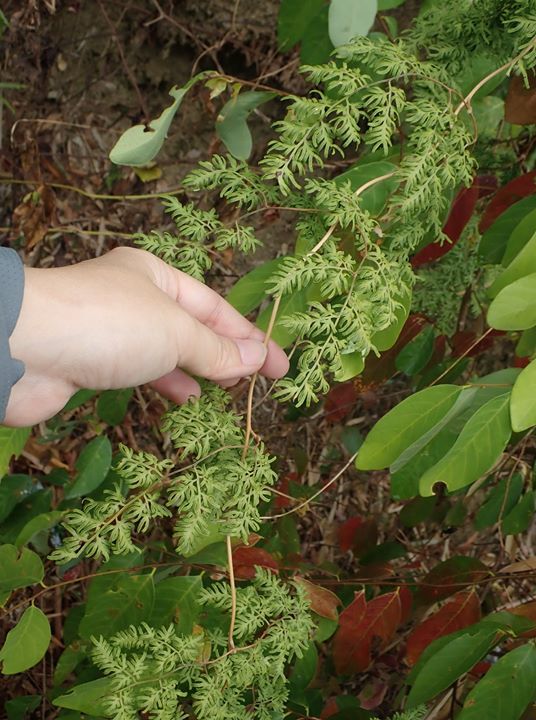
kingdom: Plantae
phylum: Tracheophyta
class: Polypodiopsida
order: Schizaeales
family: Lygodiaceae
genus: Lygodium
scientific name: Lygodium japonicum
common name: Japanese climbing fern
